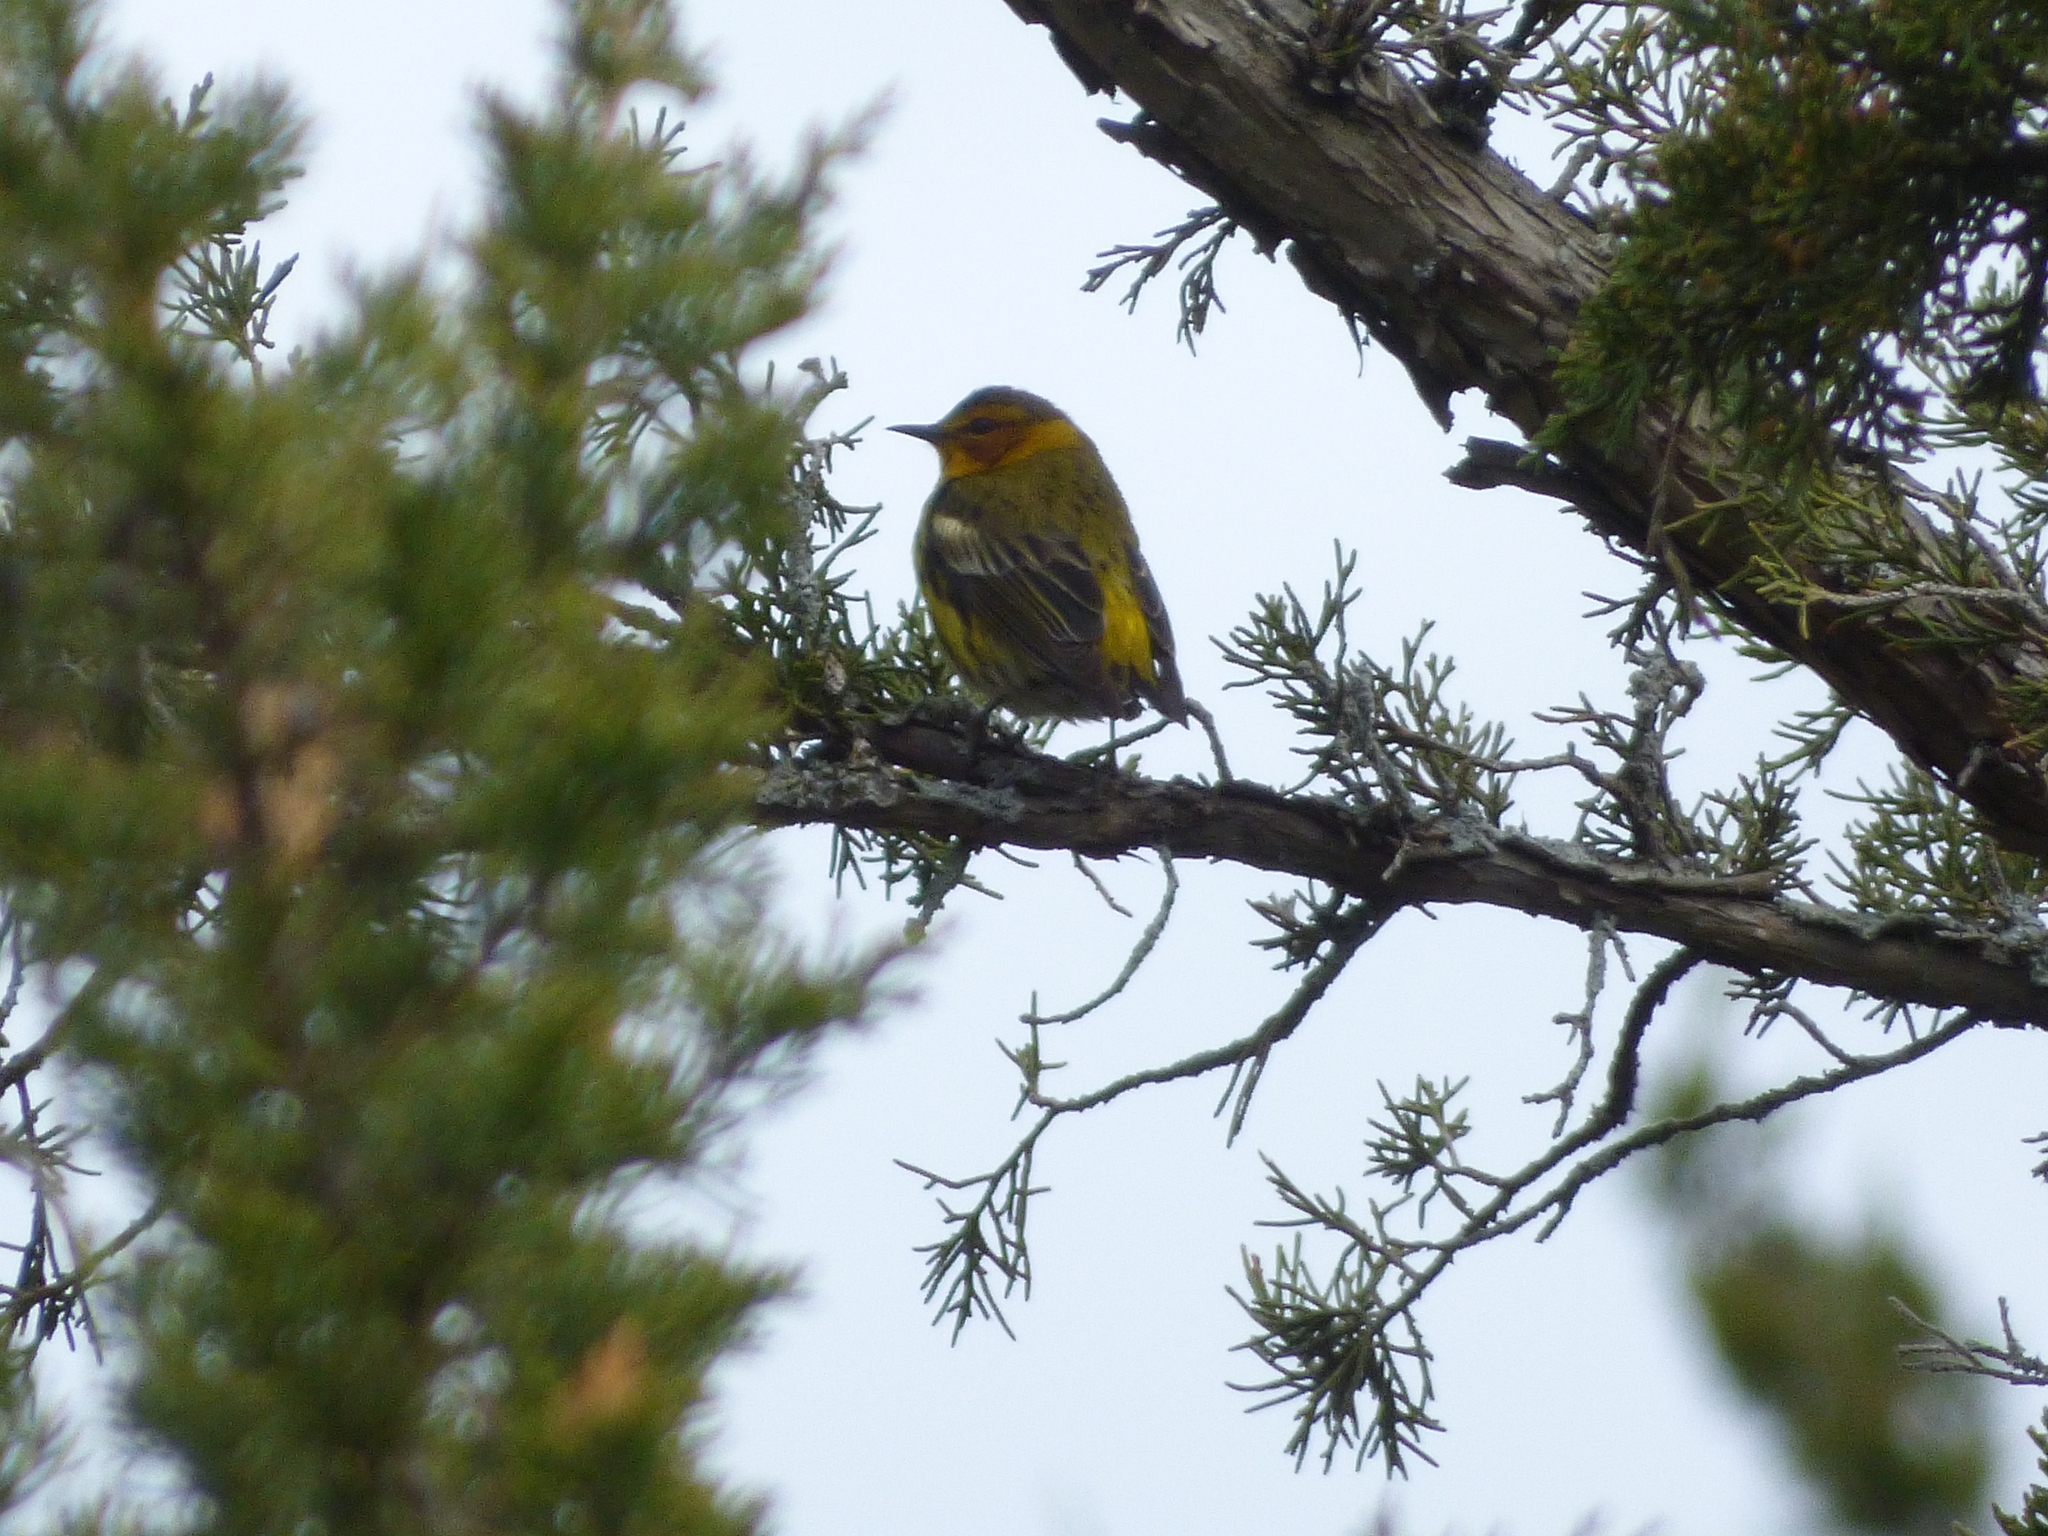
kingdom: Animalia
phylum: Chordata
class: Aves
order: Passeriformes
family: Parulidae
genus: Setophaga
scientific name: Setophaga tigrina
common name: Cape may warbler
